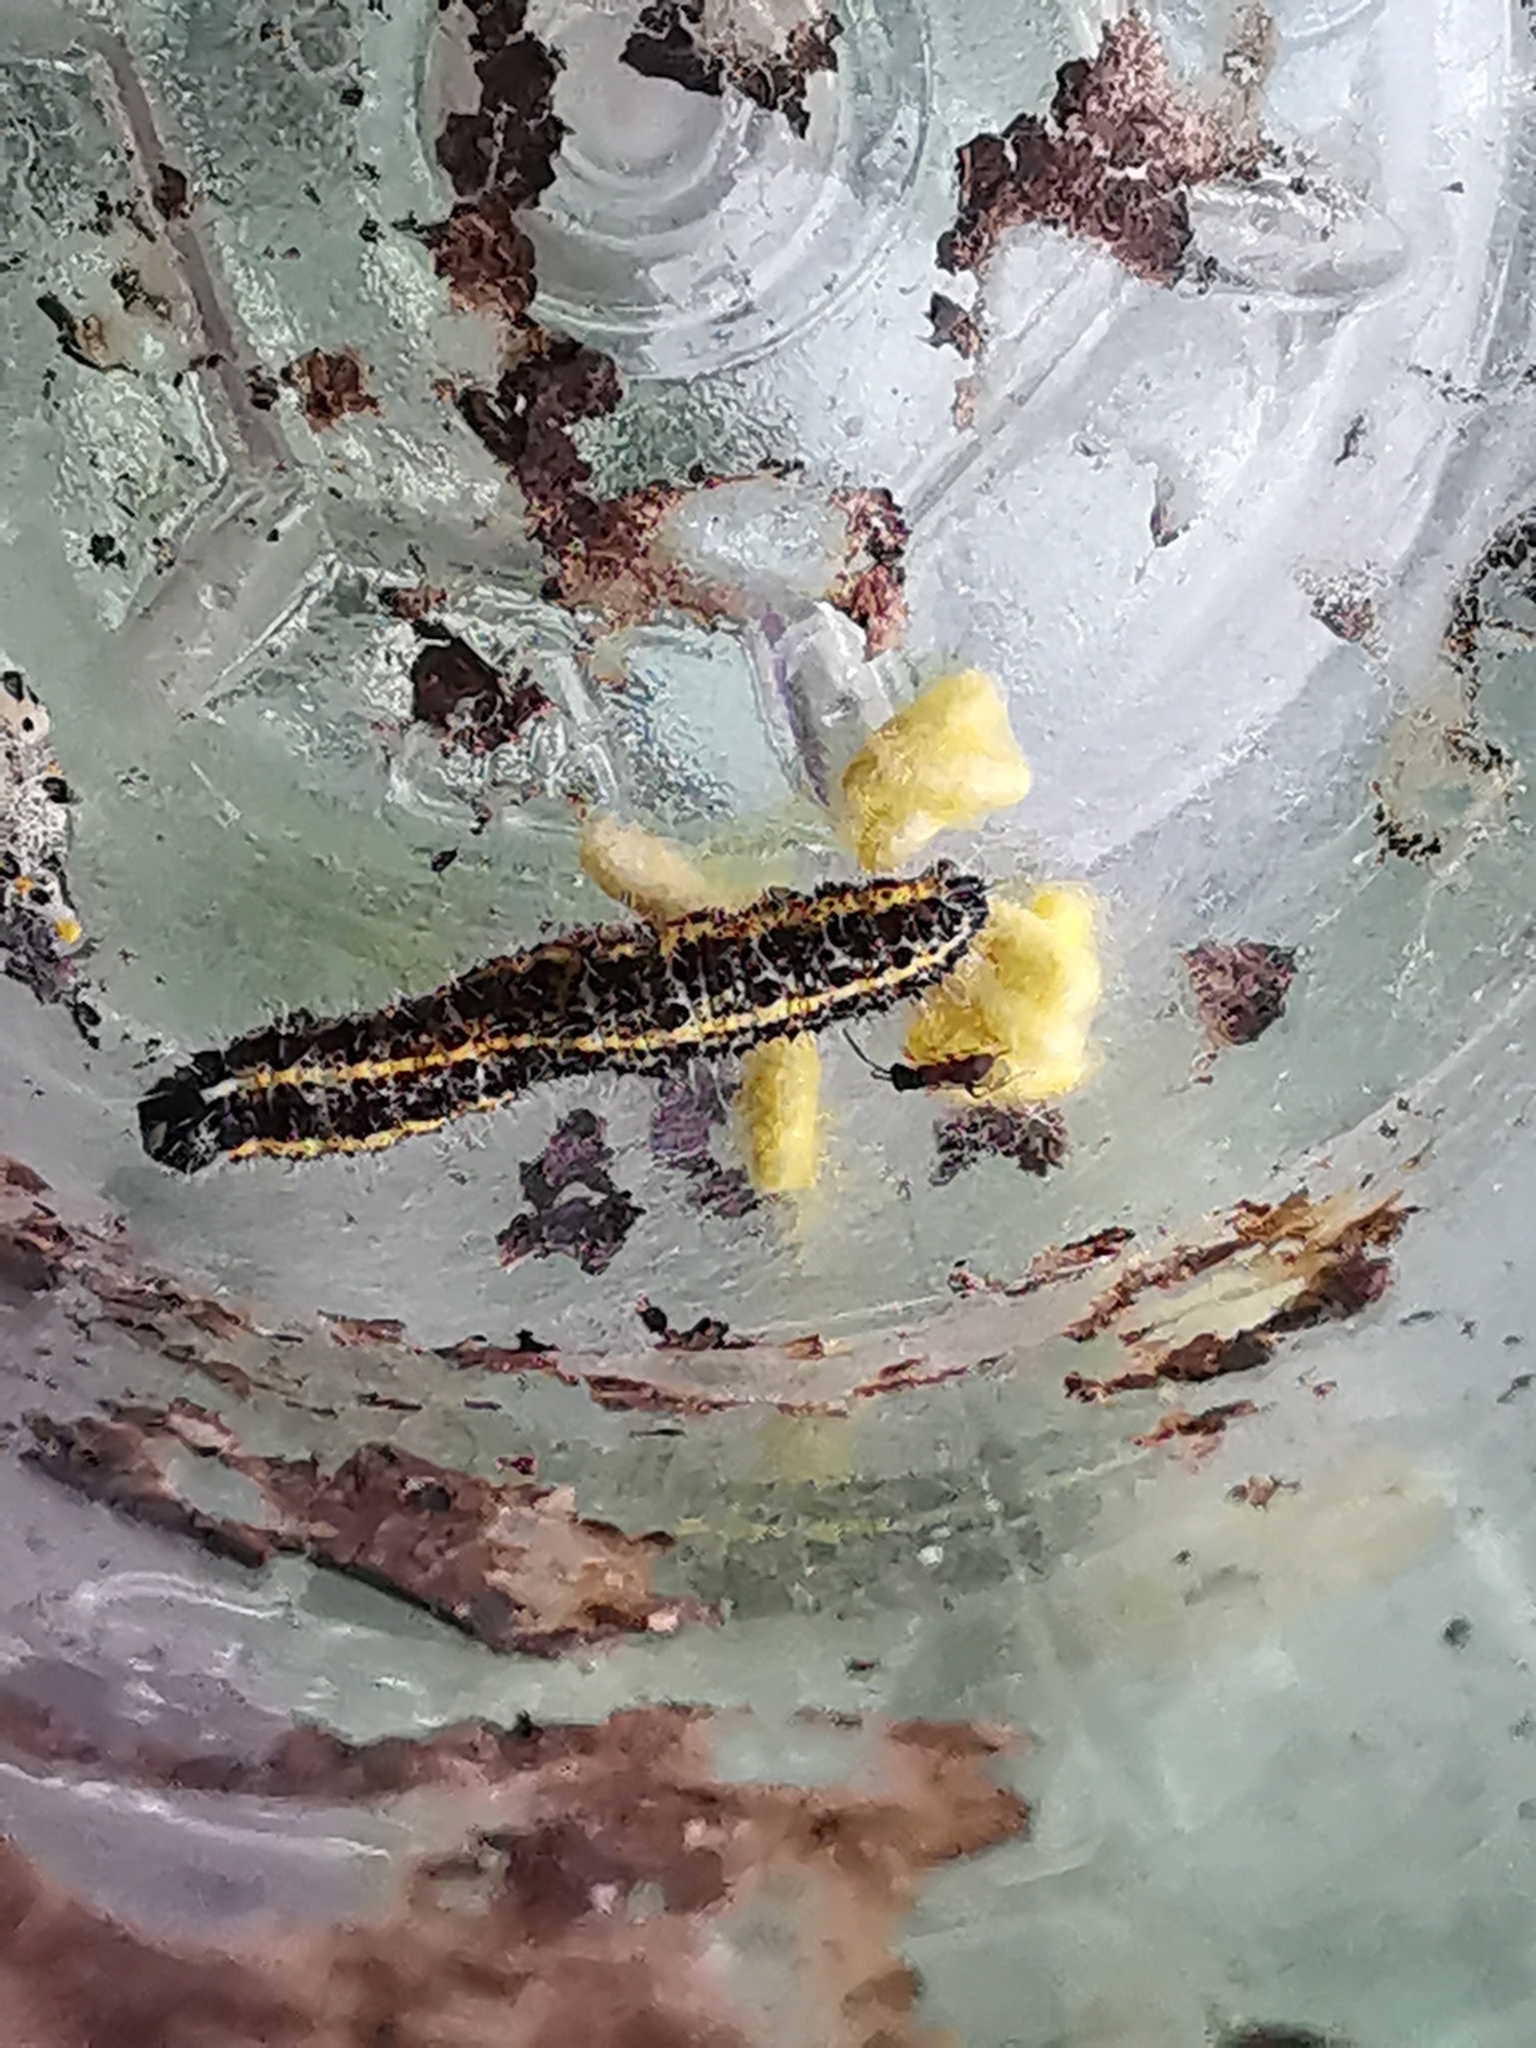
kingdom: Animalia
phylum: Arthropoda
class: Insecta
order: Hymenoptera
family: Braconidae
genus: Cotesia
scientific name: Cotesia glomerata
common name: Parasitoid wasp
